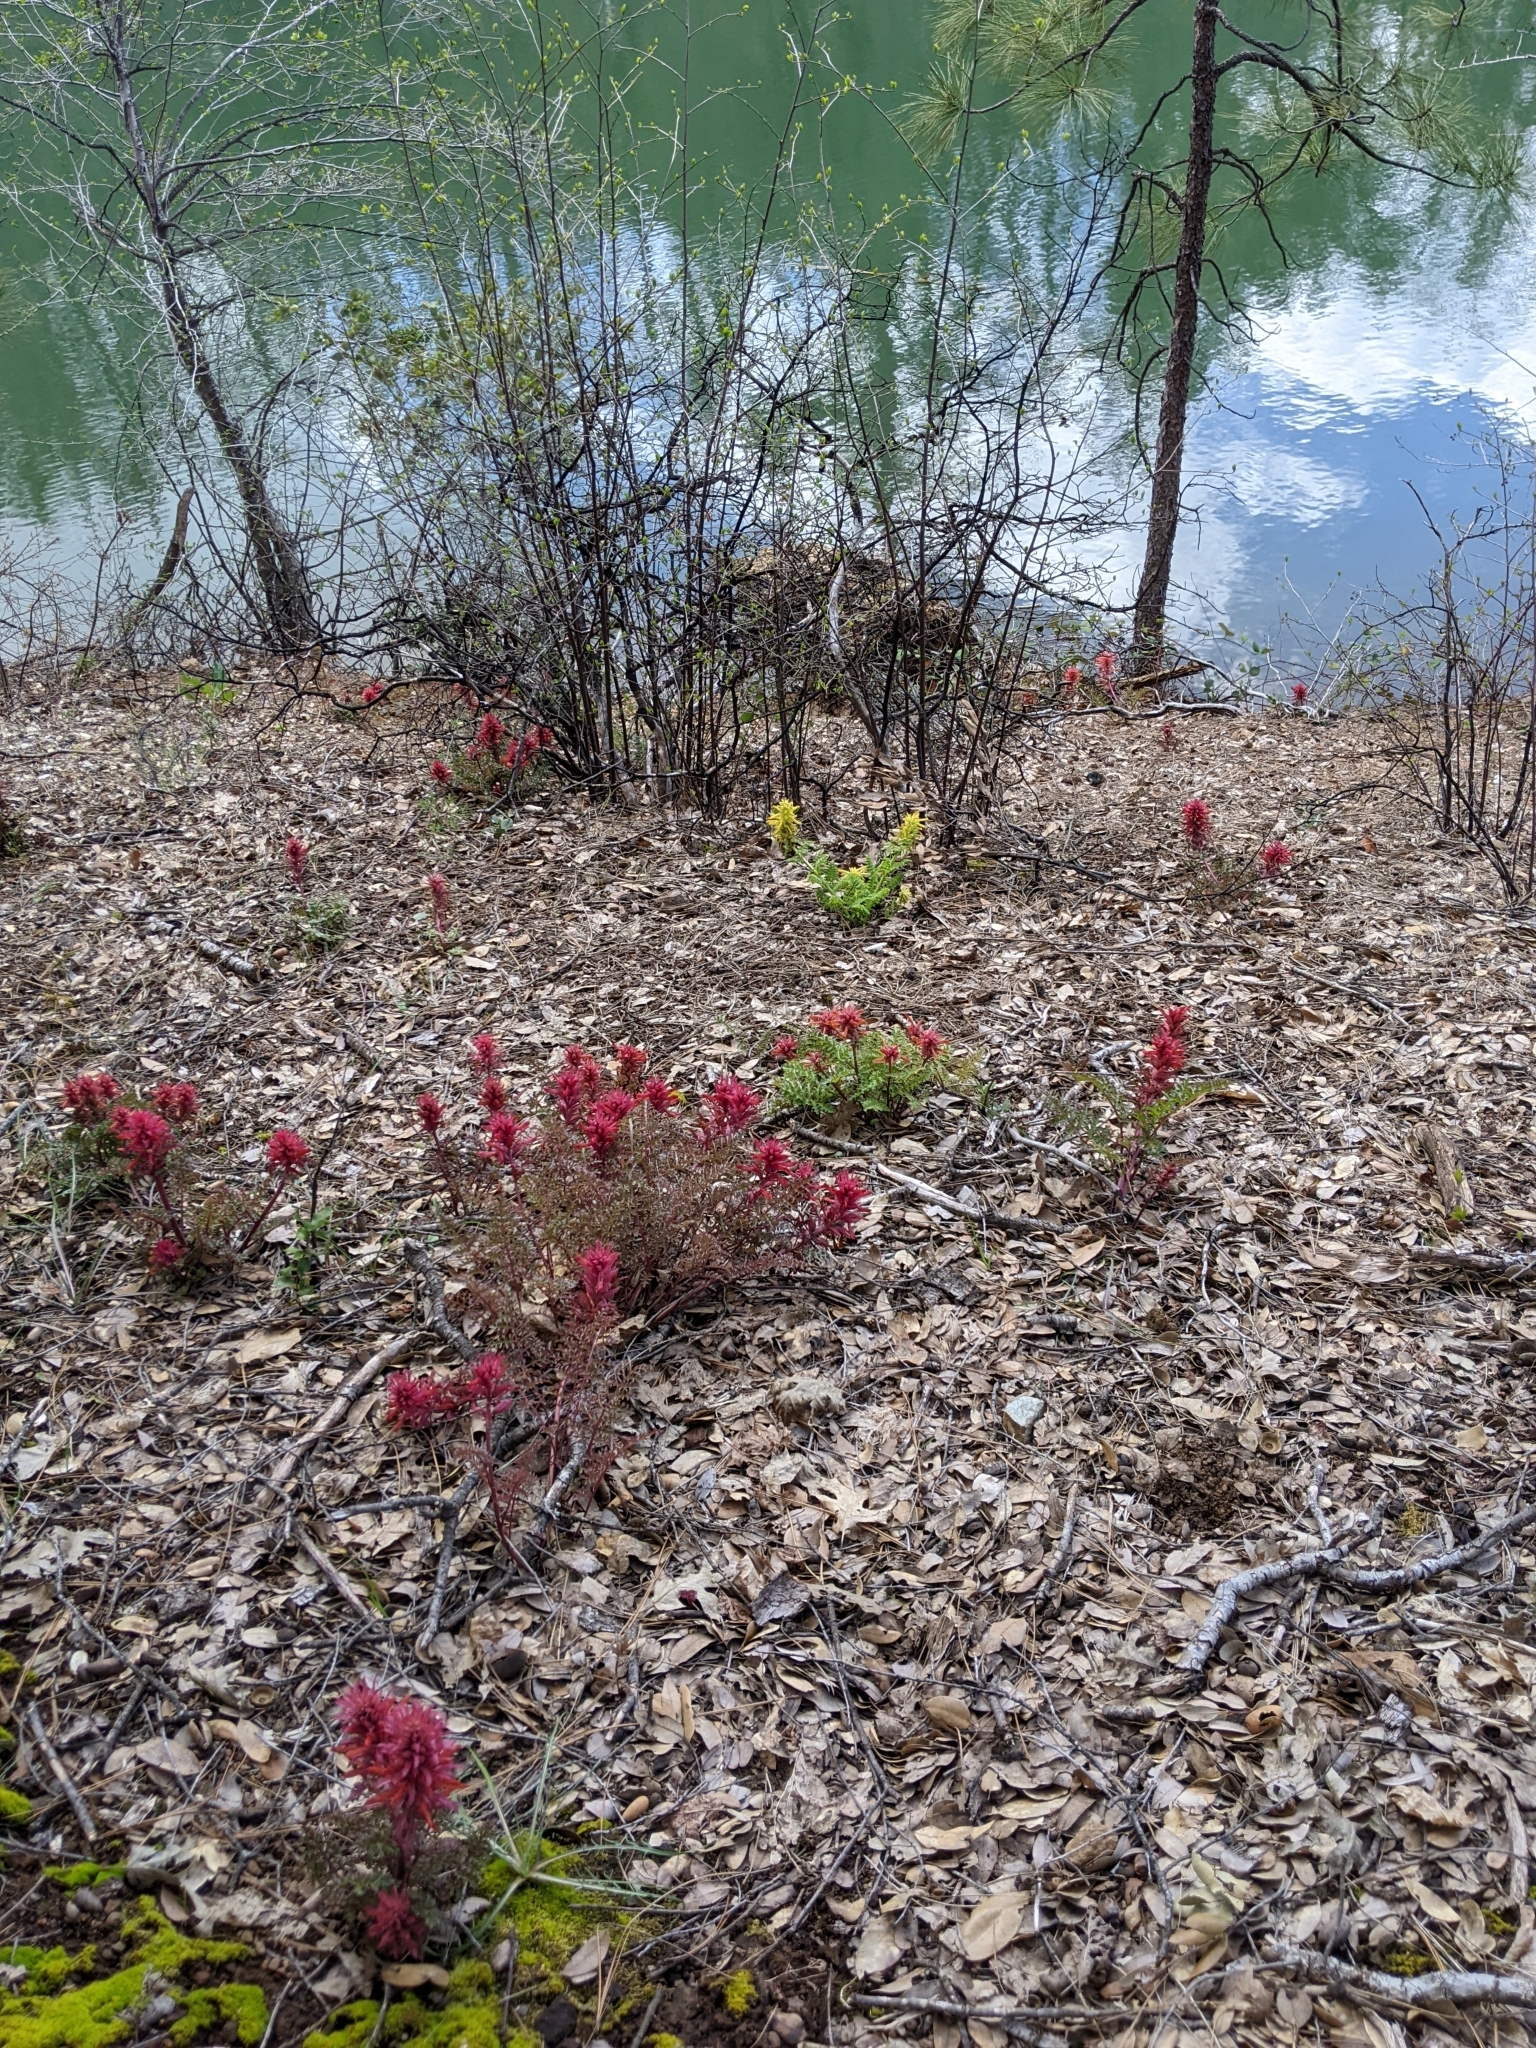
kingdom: Plantae
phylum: Tracheophyta
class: Magnoliopsida
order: Lamiales
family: Orobanchaceae
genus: Pedicularis
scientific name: Pedicularis densiflora
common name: Indian warrior
